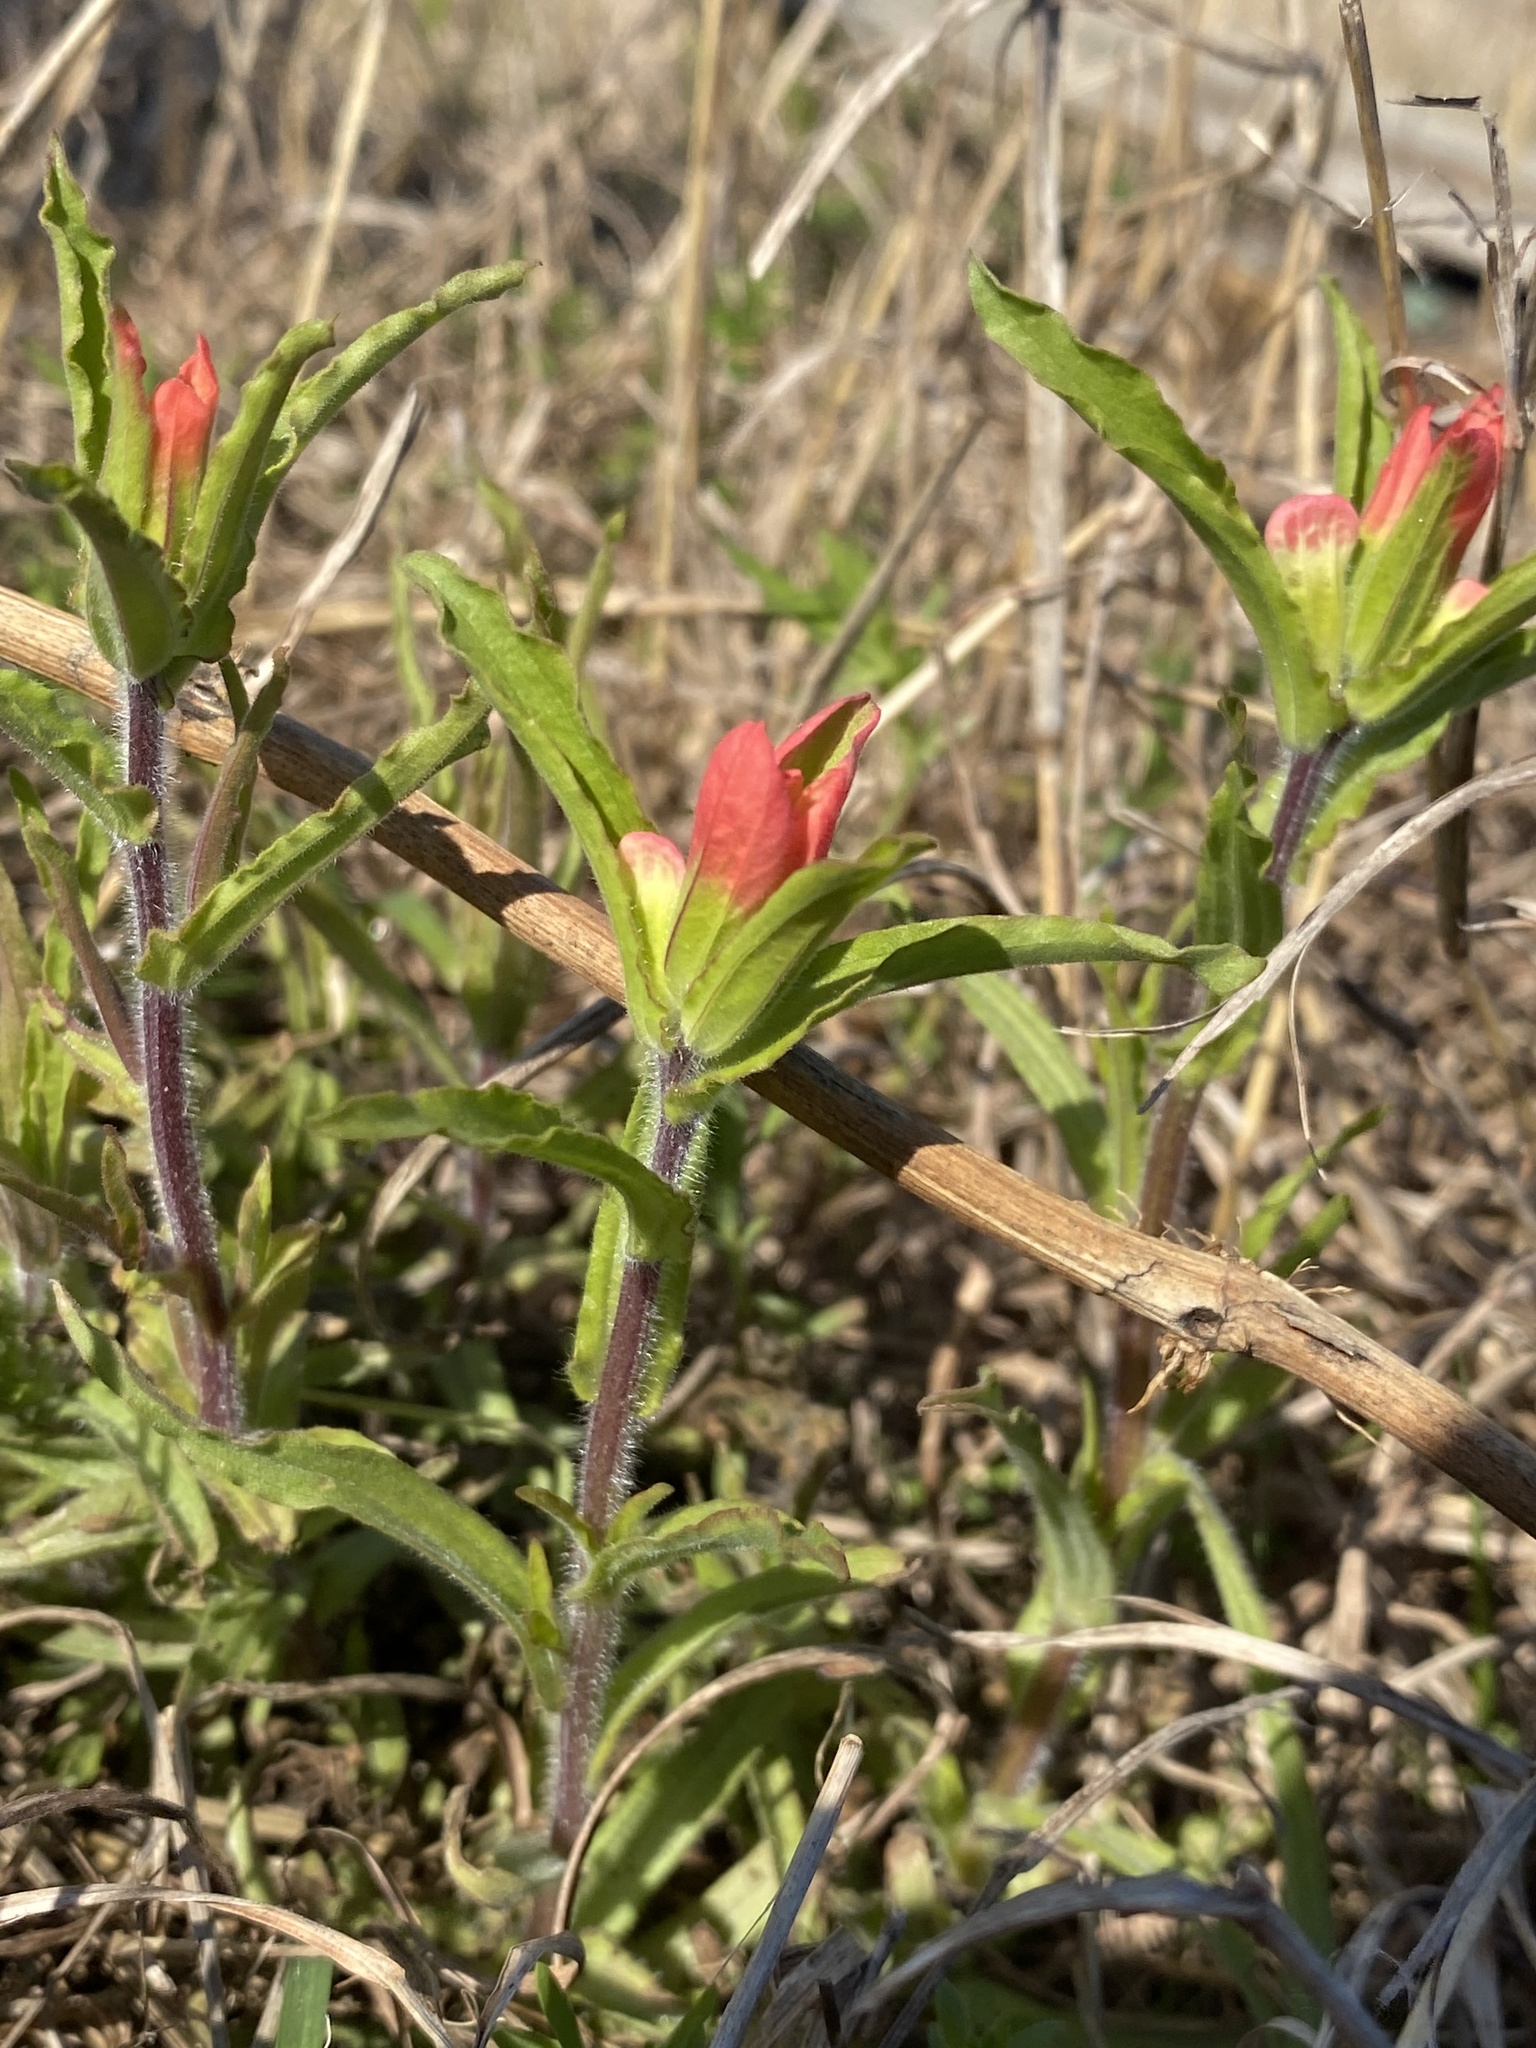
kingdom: Plantae
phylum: Tracheophyta
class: Magnoliopsida
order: Lamiales
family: Orobanchaceae
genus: Castilleja
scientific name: Castilleja indivisa
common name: Texas paintbrush
